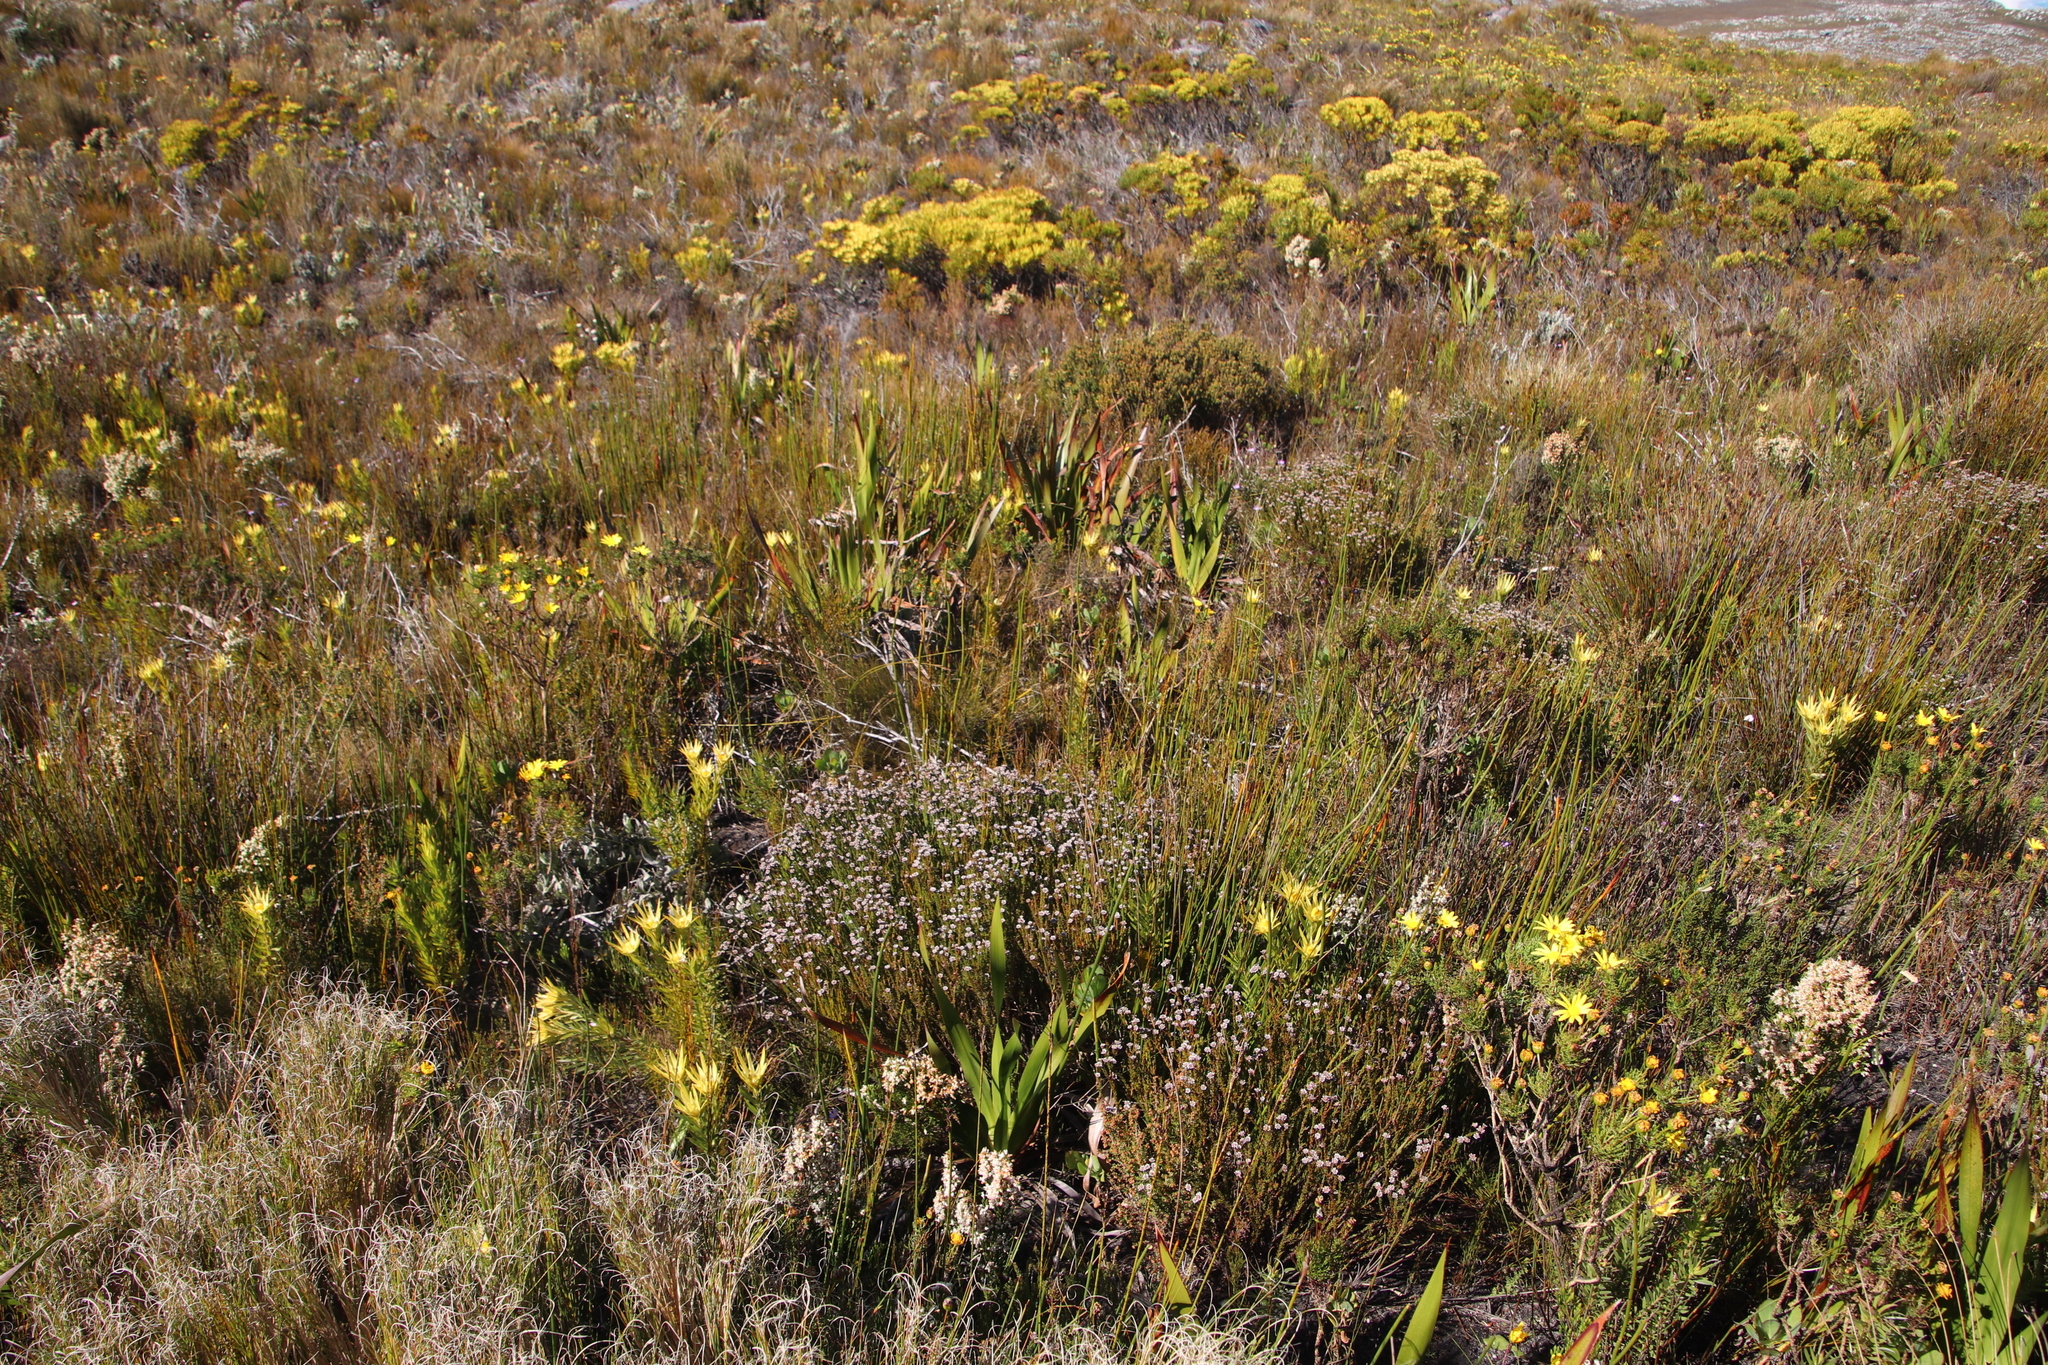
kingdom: Plantae
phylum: Tracheophyta
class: Magnoliopsida
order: Bruniales
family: Bruniaceae
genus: Staavia
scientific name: Staavia radiata
